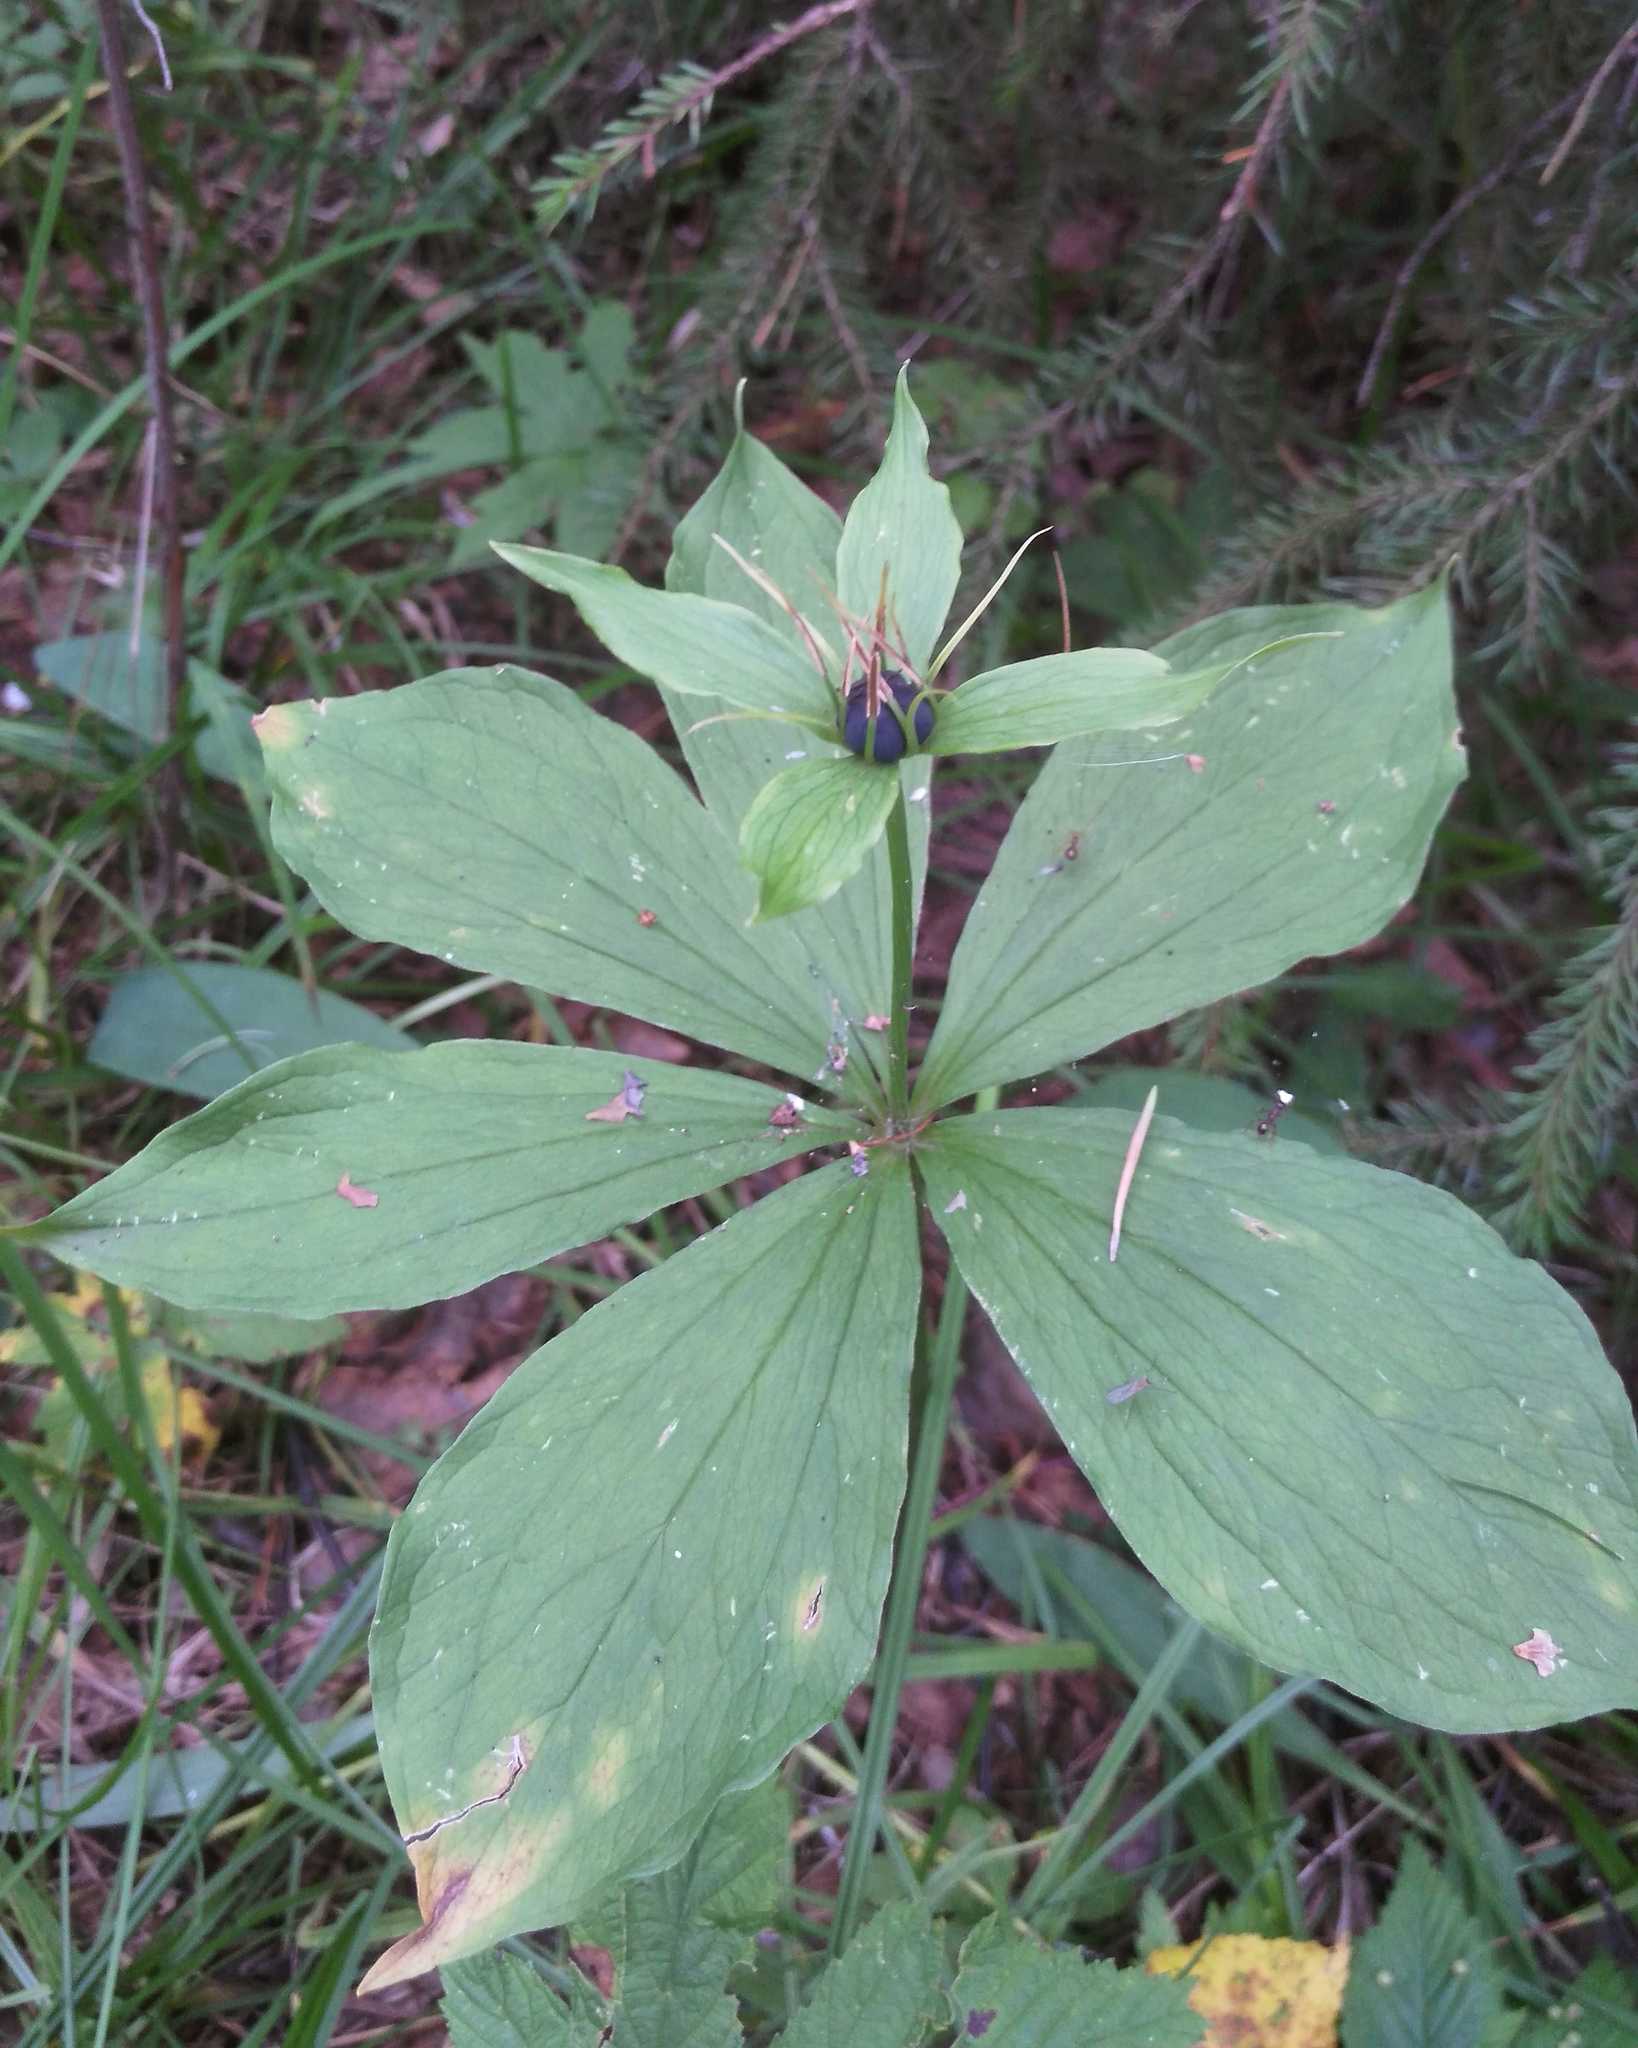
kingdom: Plantae
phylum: Tracheophyta
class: Liliopsida
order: Liliales
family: Melanthiaceae
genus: Paris
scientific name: Paris verticillata
